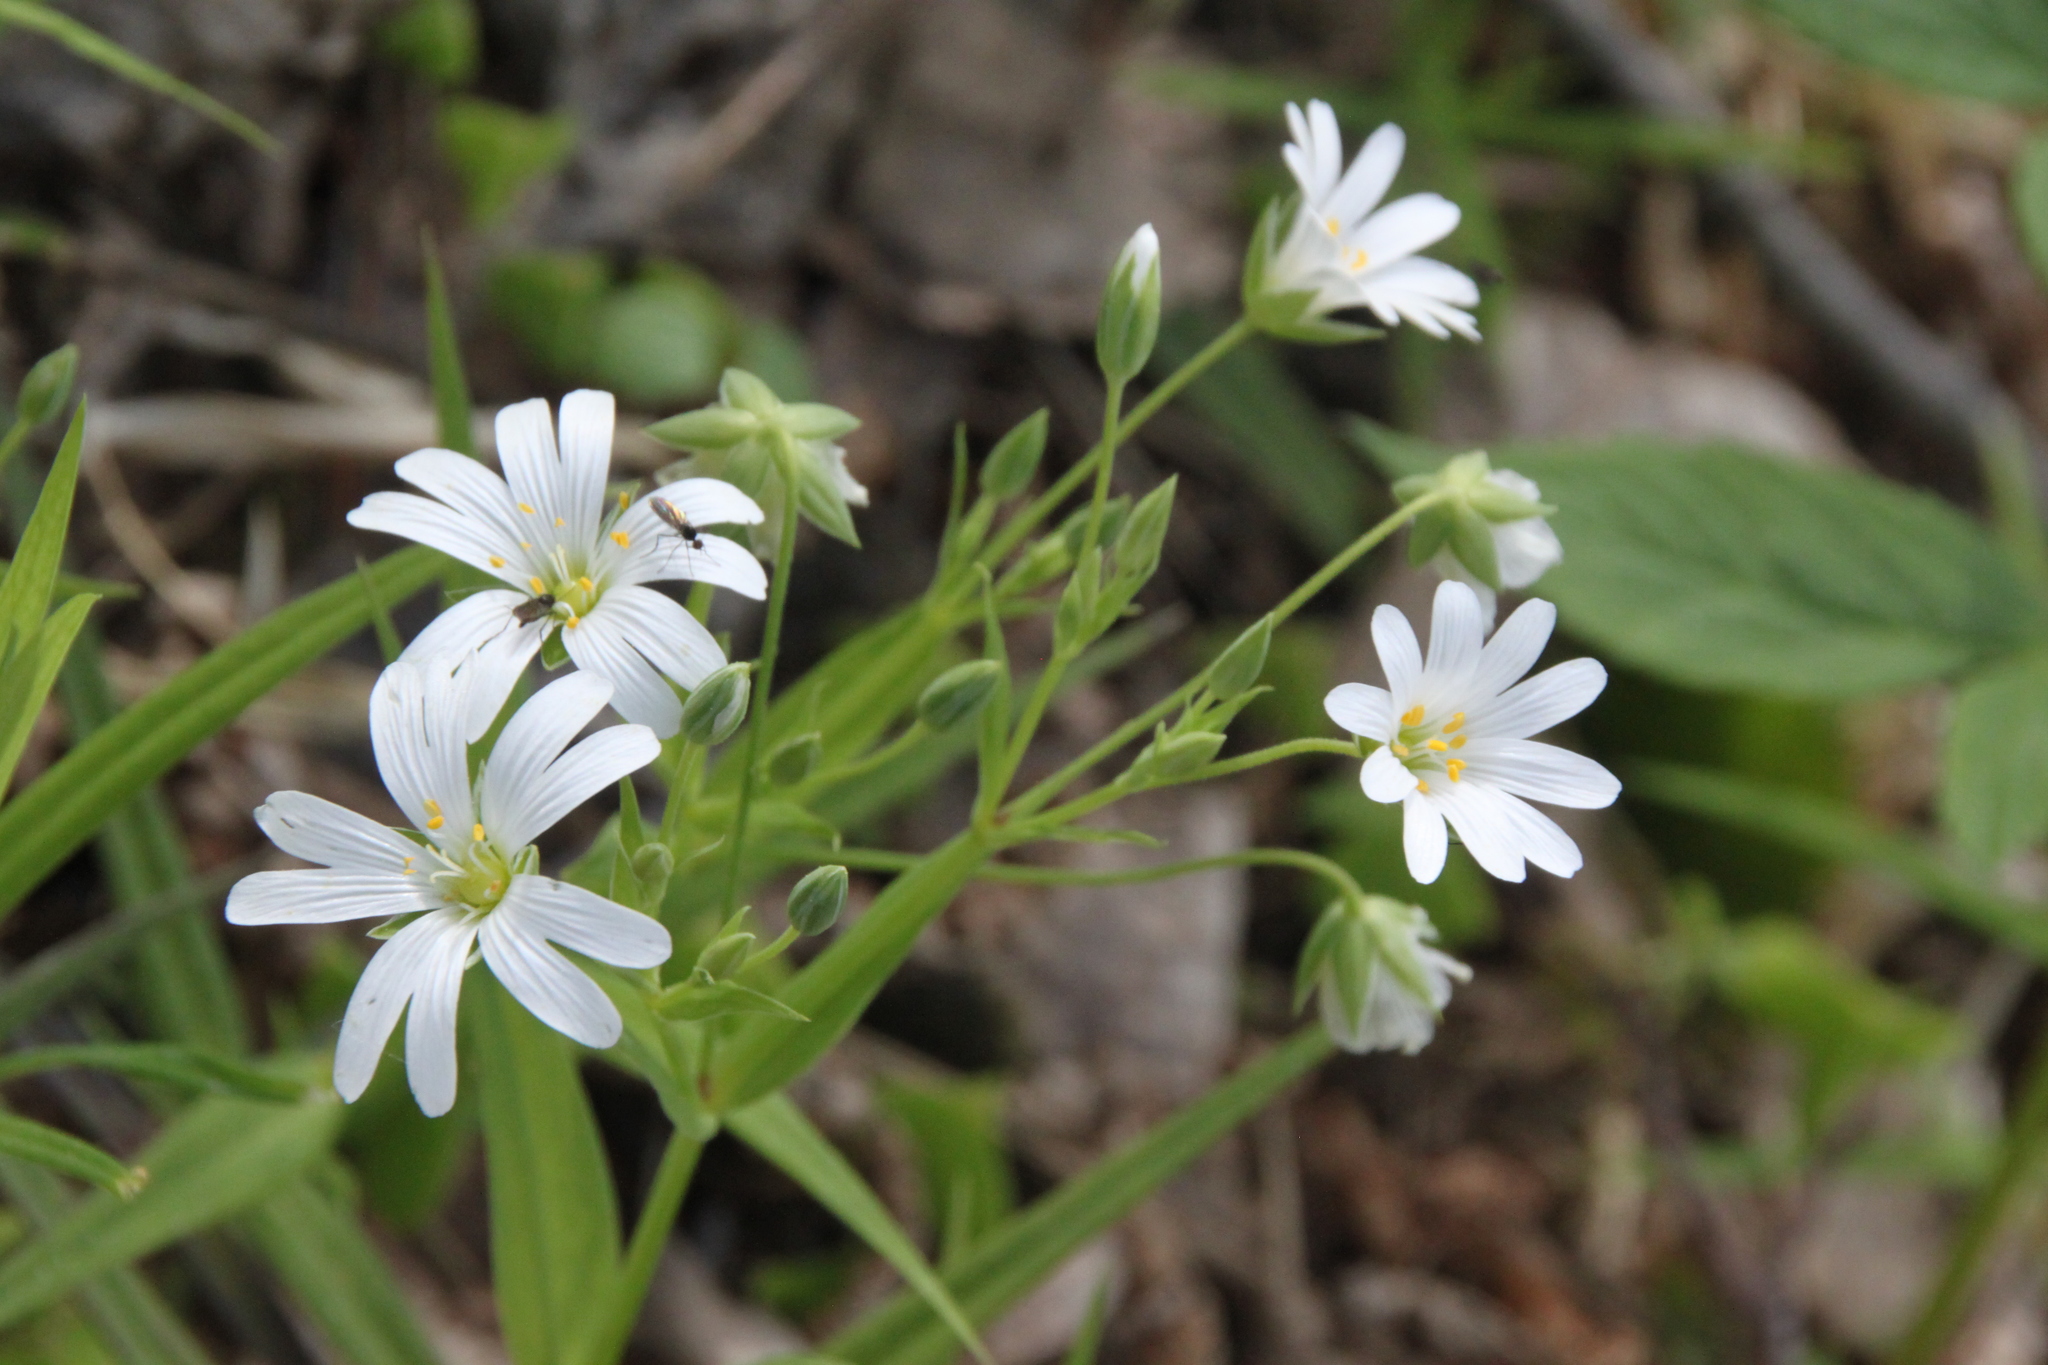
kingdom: Plantae
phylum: Tracheophyta
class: Magnoliopsida
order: Caryophyllales
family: Caryophyllaceae
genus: Rabelera
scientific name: Rabelera holostea
